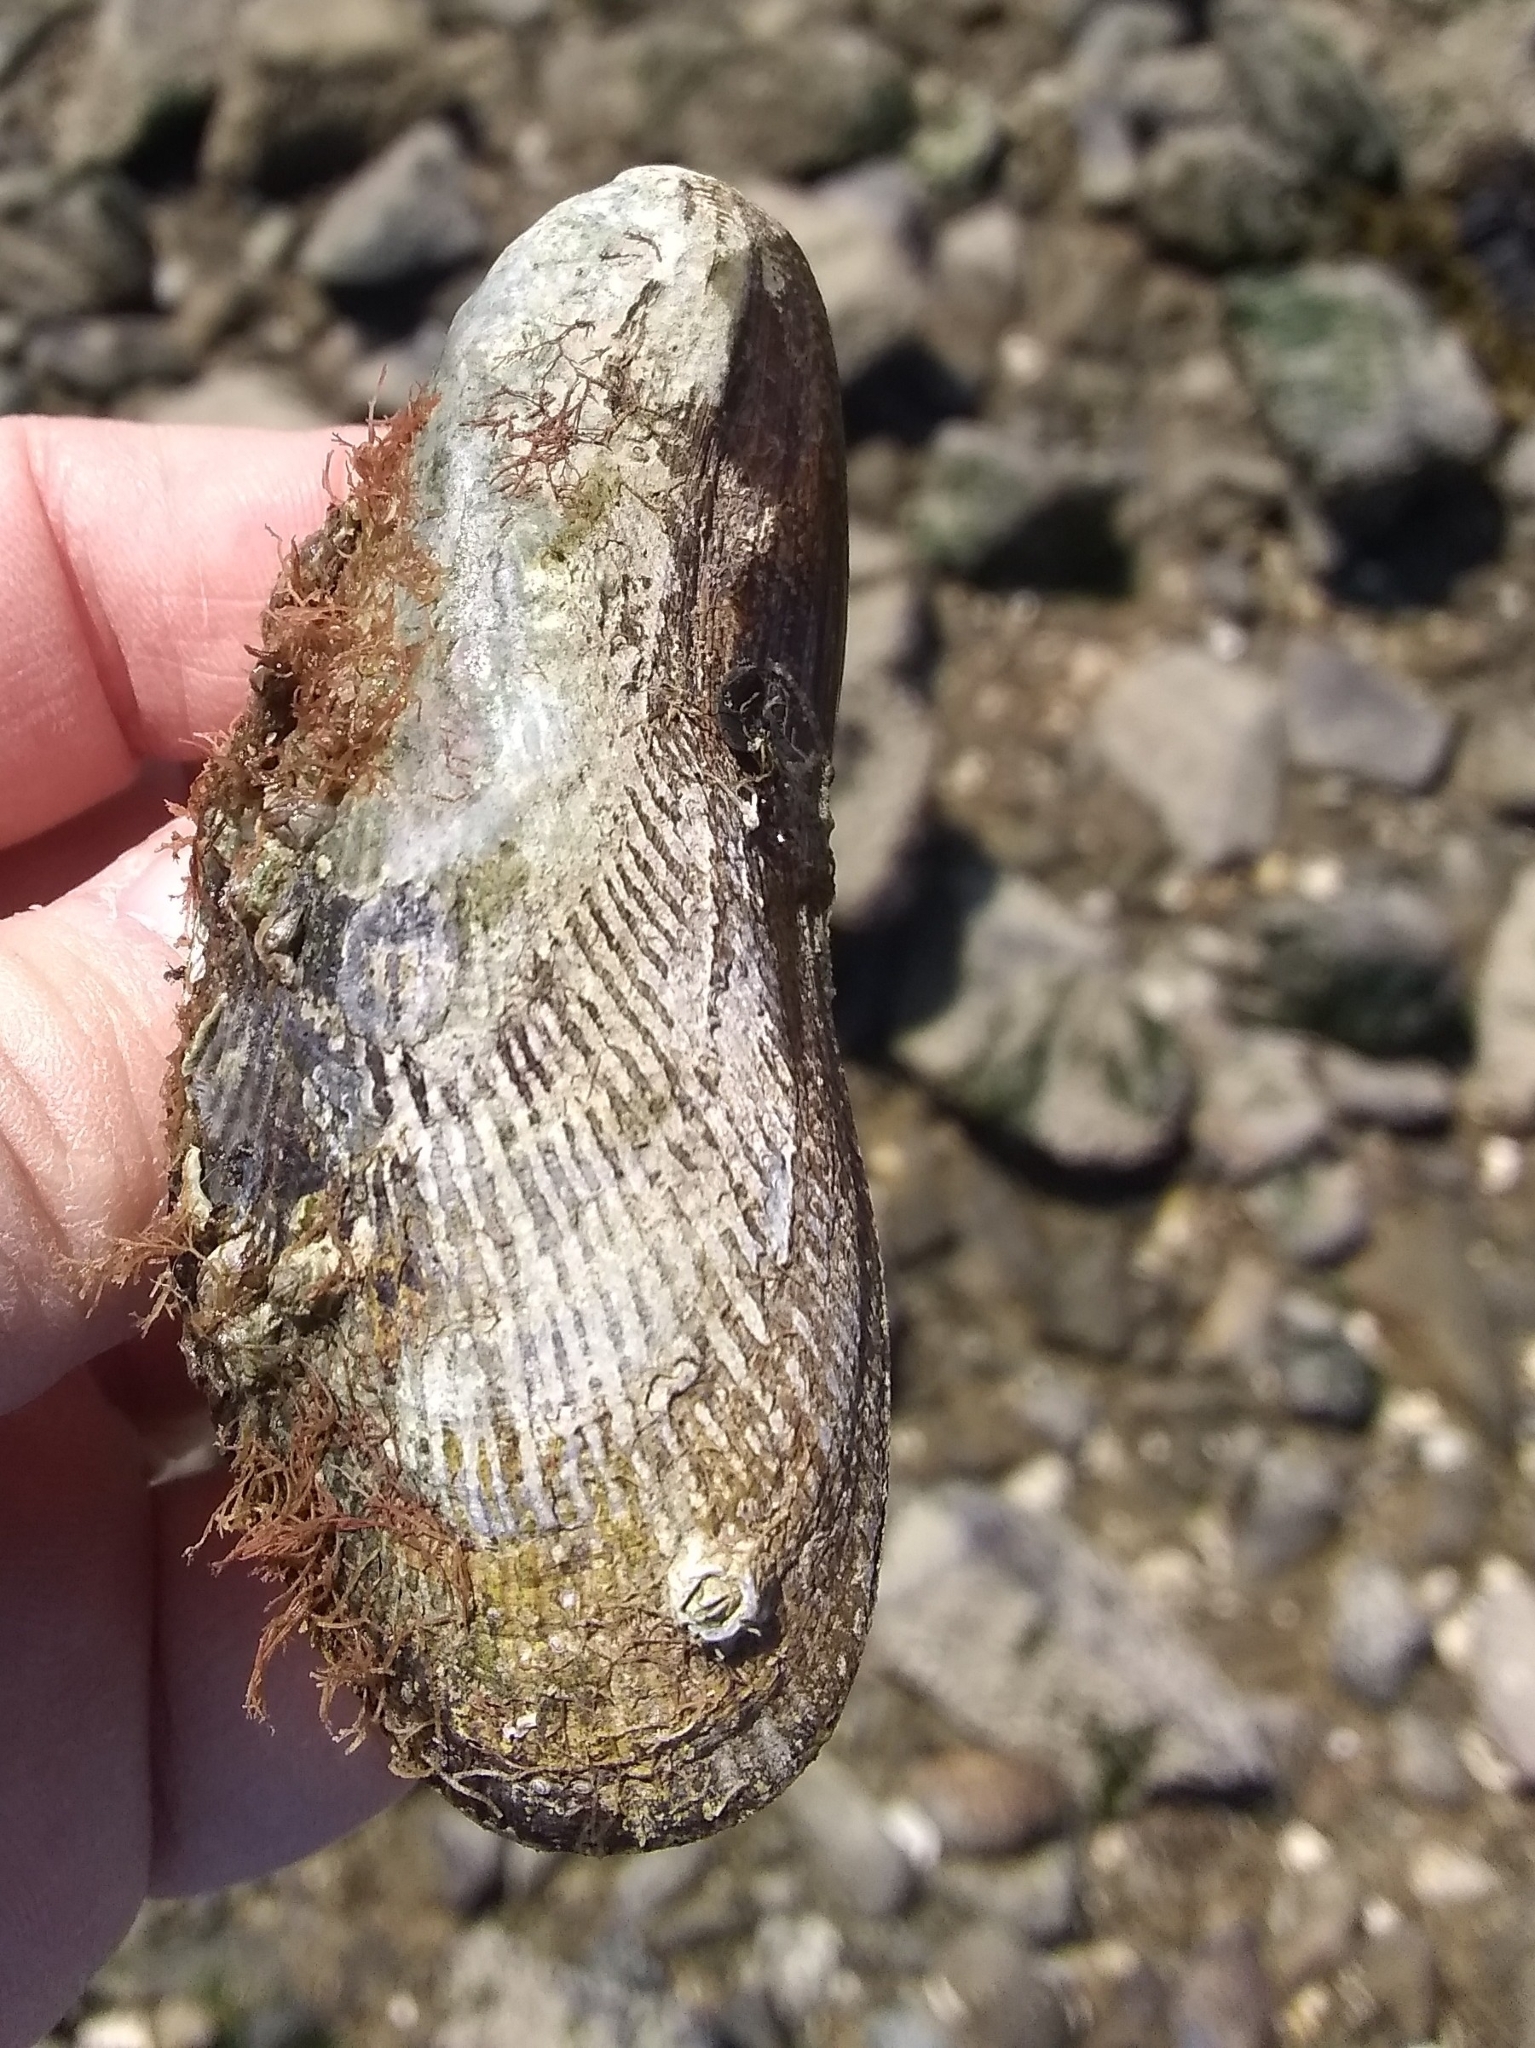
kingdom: Animalia
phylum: Mollusca
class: Bivalvia
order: Mytilida
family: Mytilidae
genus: Geukensia
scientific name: Geukensia demissa
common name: Ribbed mussel
